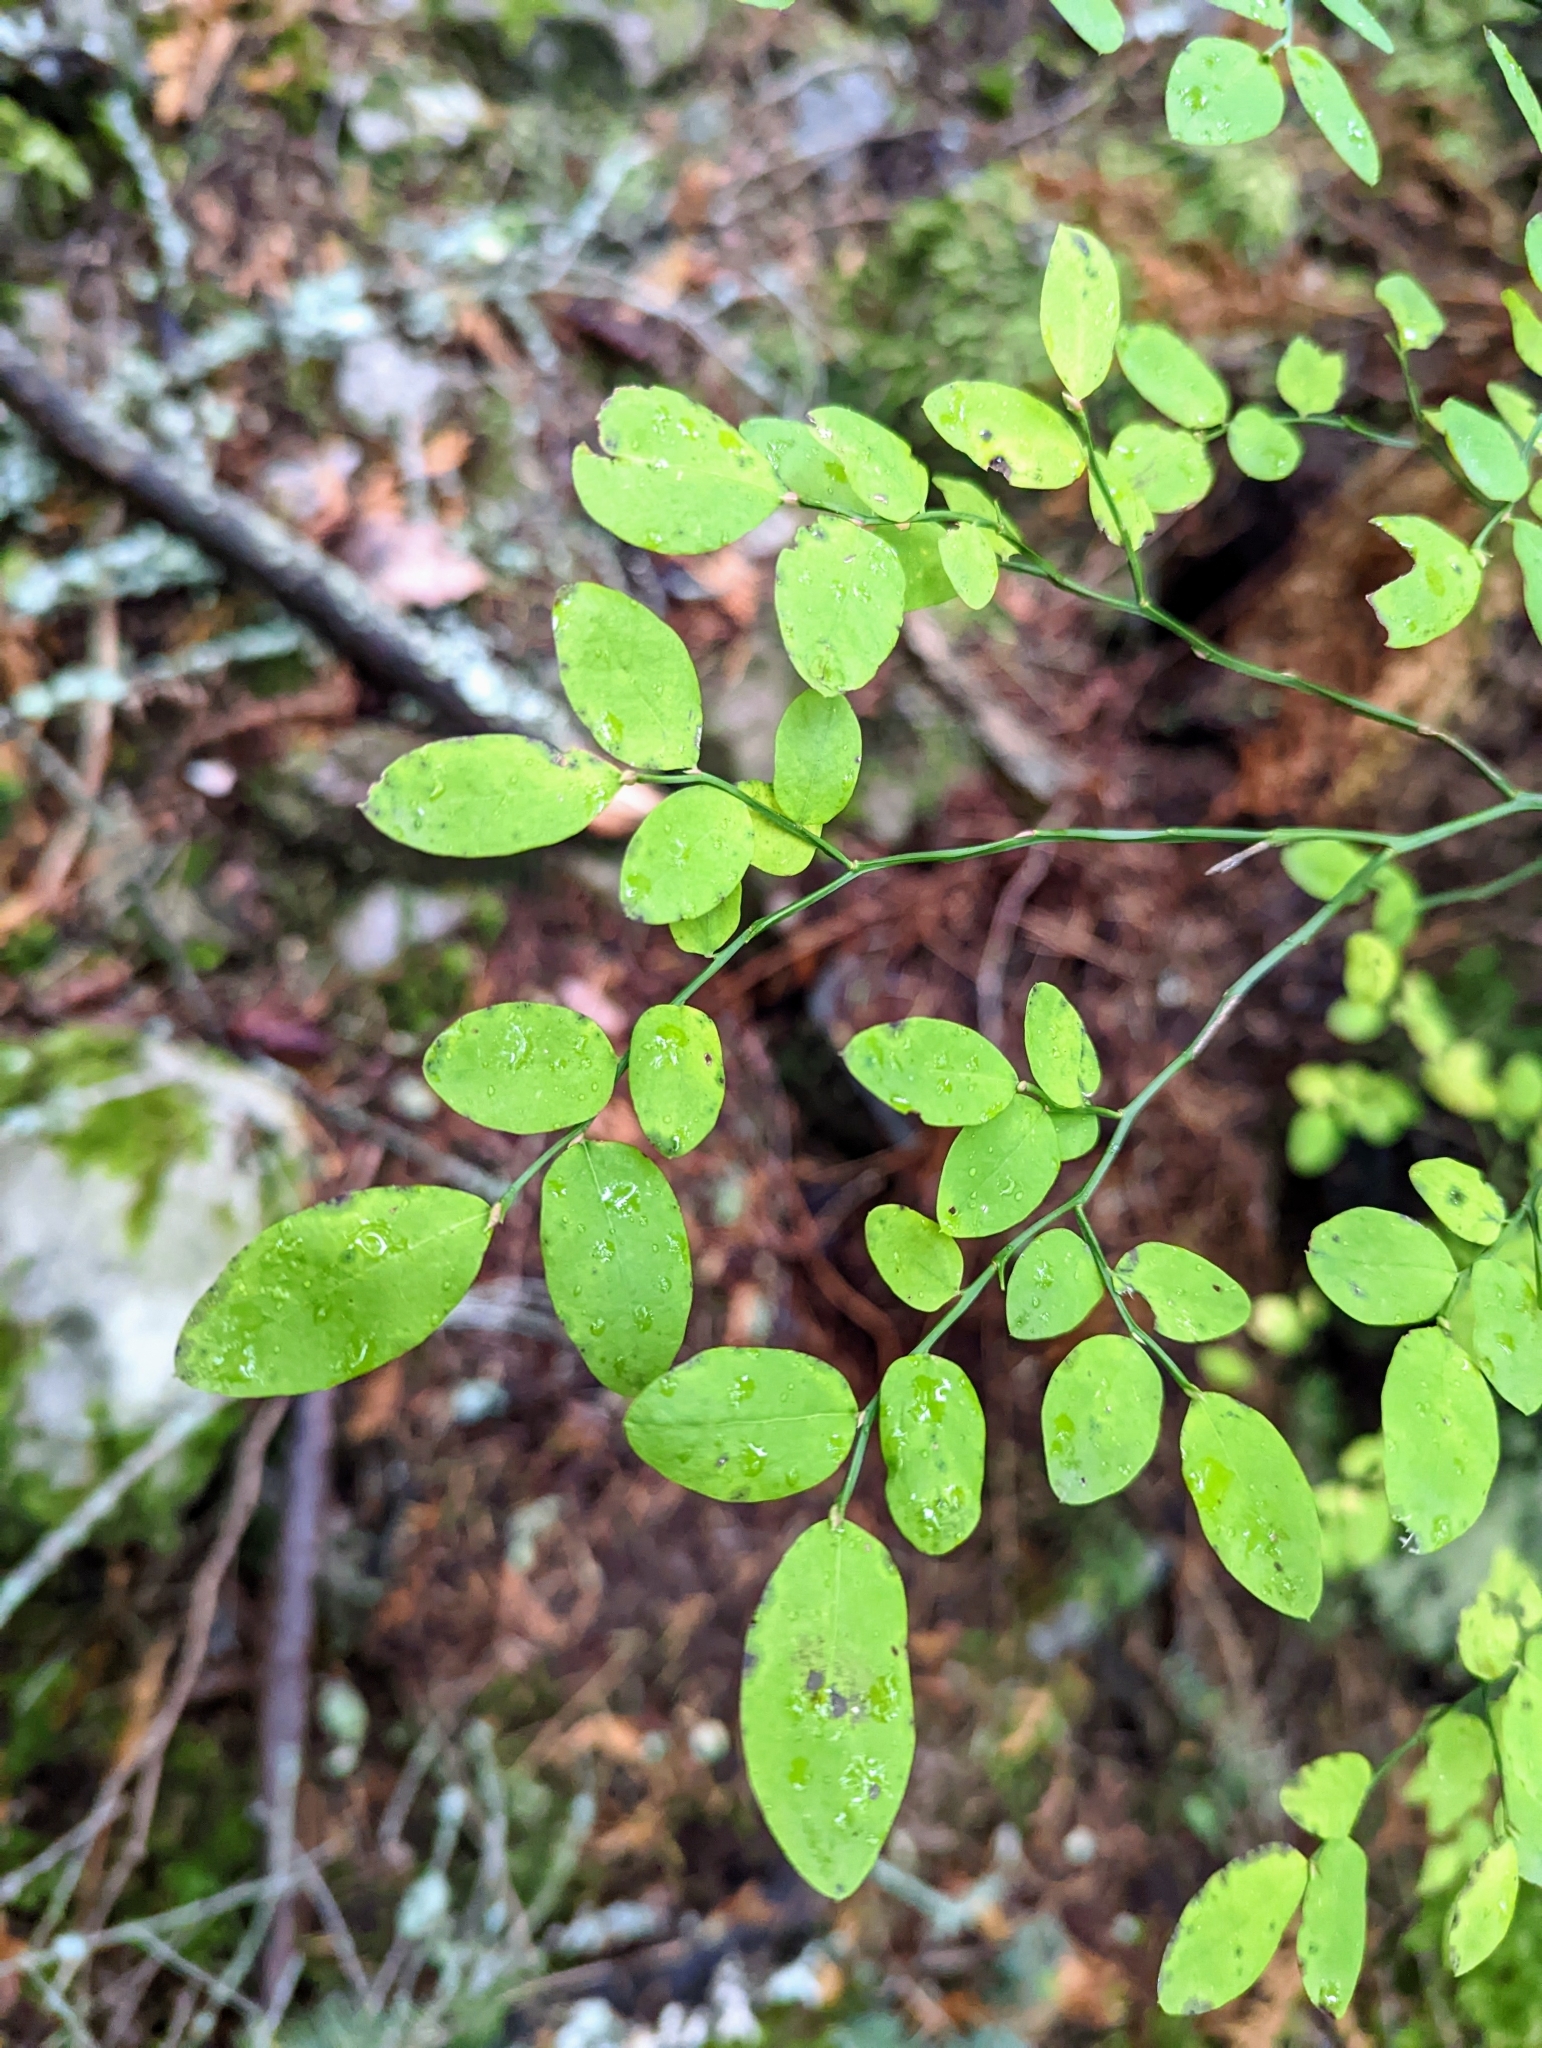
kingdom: Plantae
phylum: Tracheophyta
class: Magnoliopsida
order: Ericales
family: Ericaceae
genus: Vaccinium
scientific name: Vaccinium parvifolium
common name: Red-huckleberry
